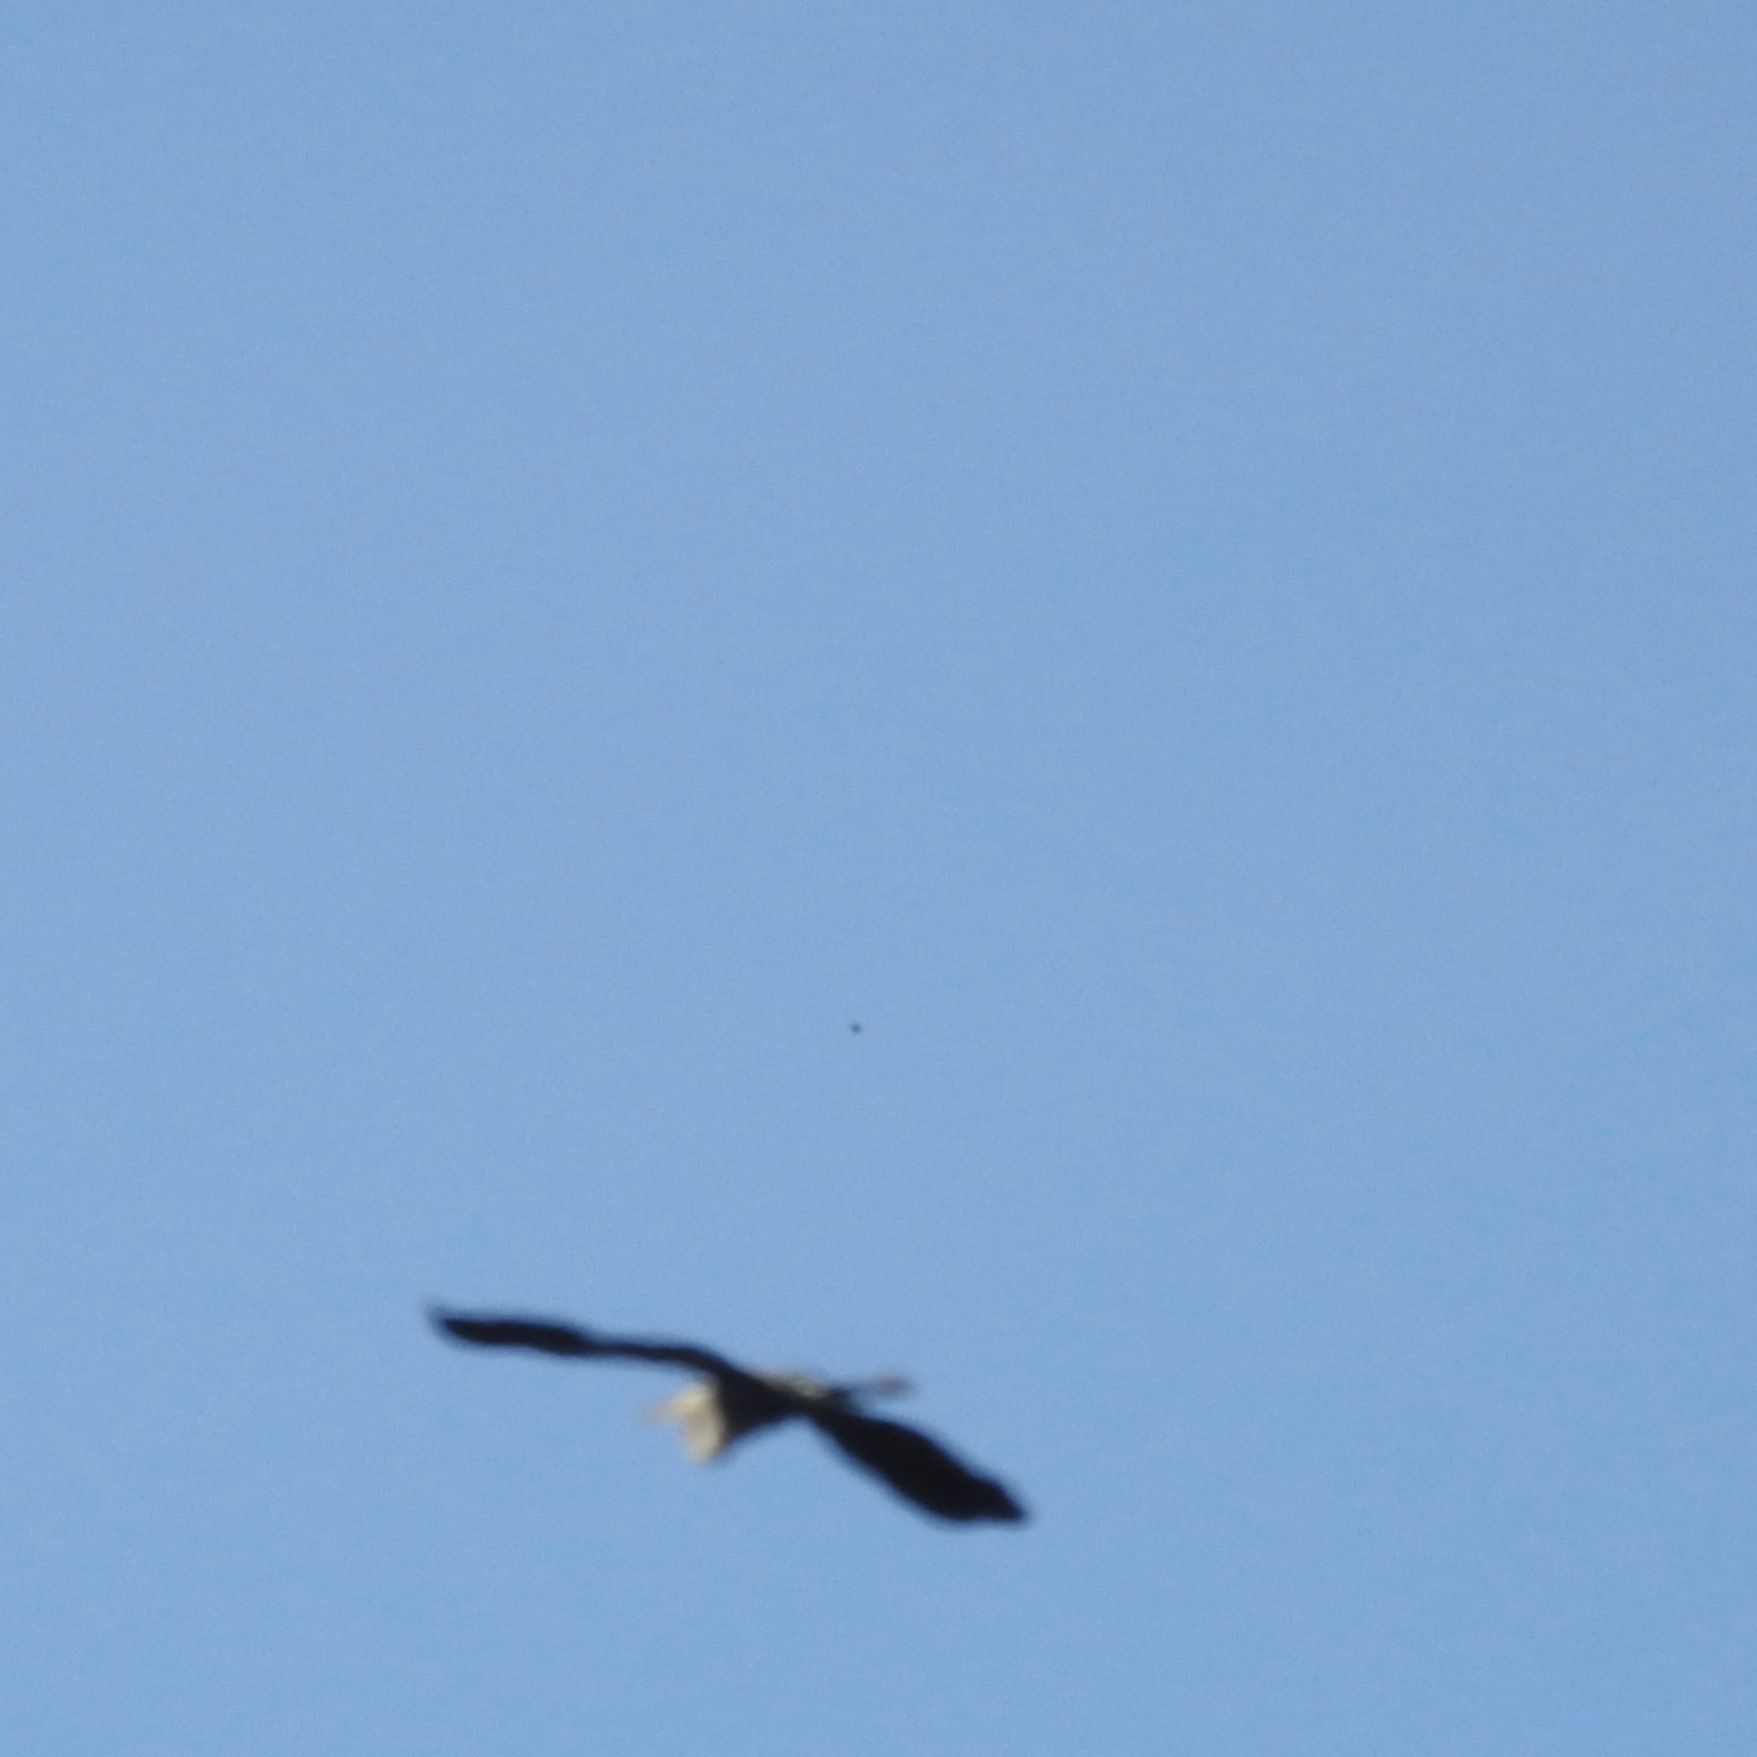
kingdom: Animalia
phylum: Chordata
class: Aves
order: Pelecaniformes
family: Ardeidae
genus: Ardea
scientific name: Ardea herodias
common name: Great blue heron
